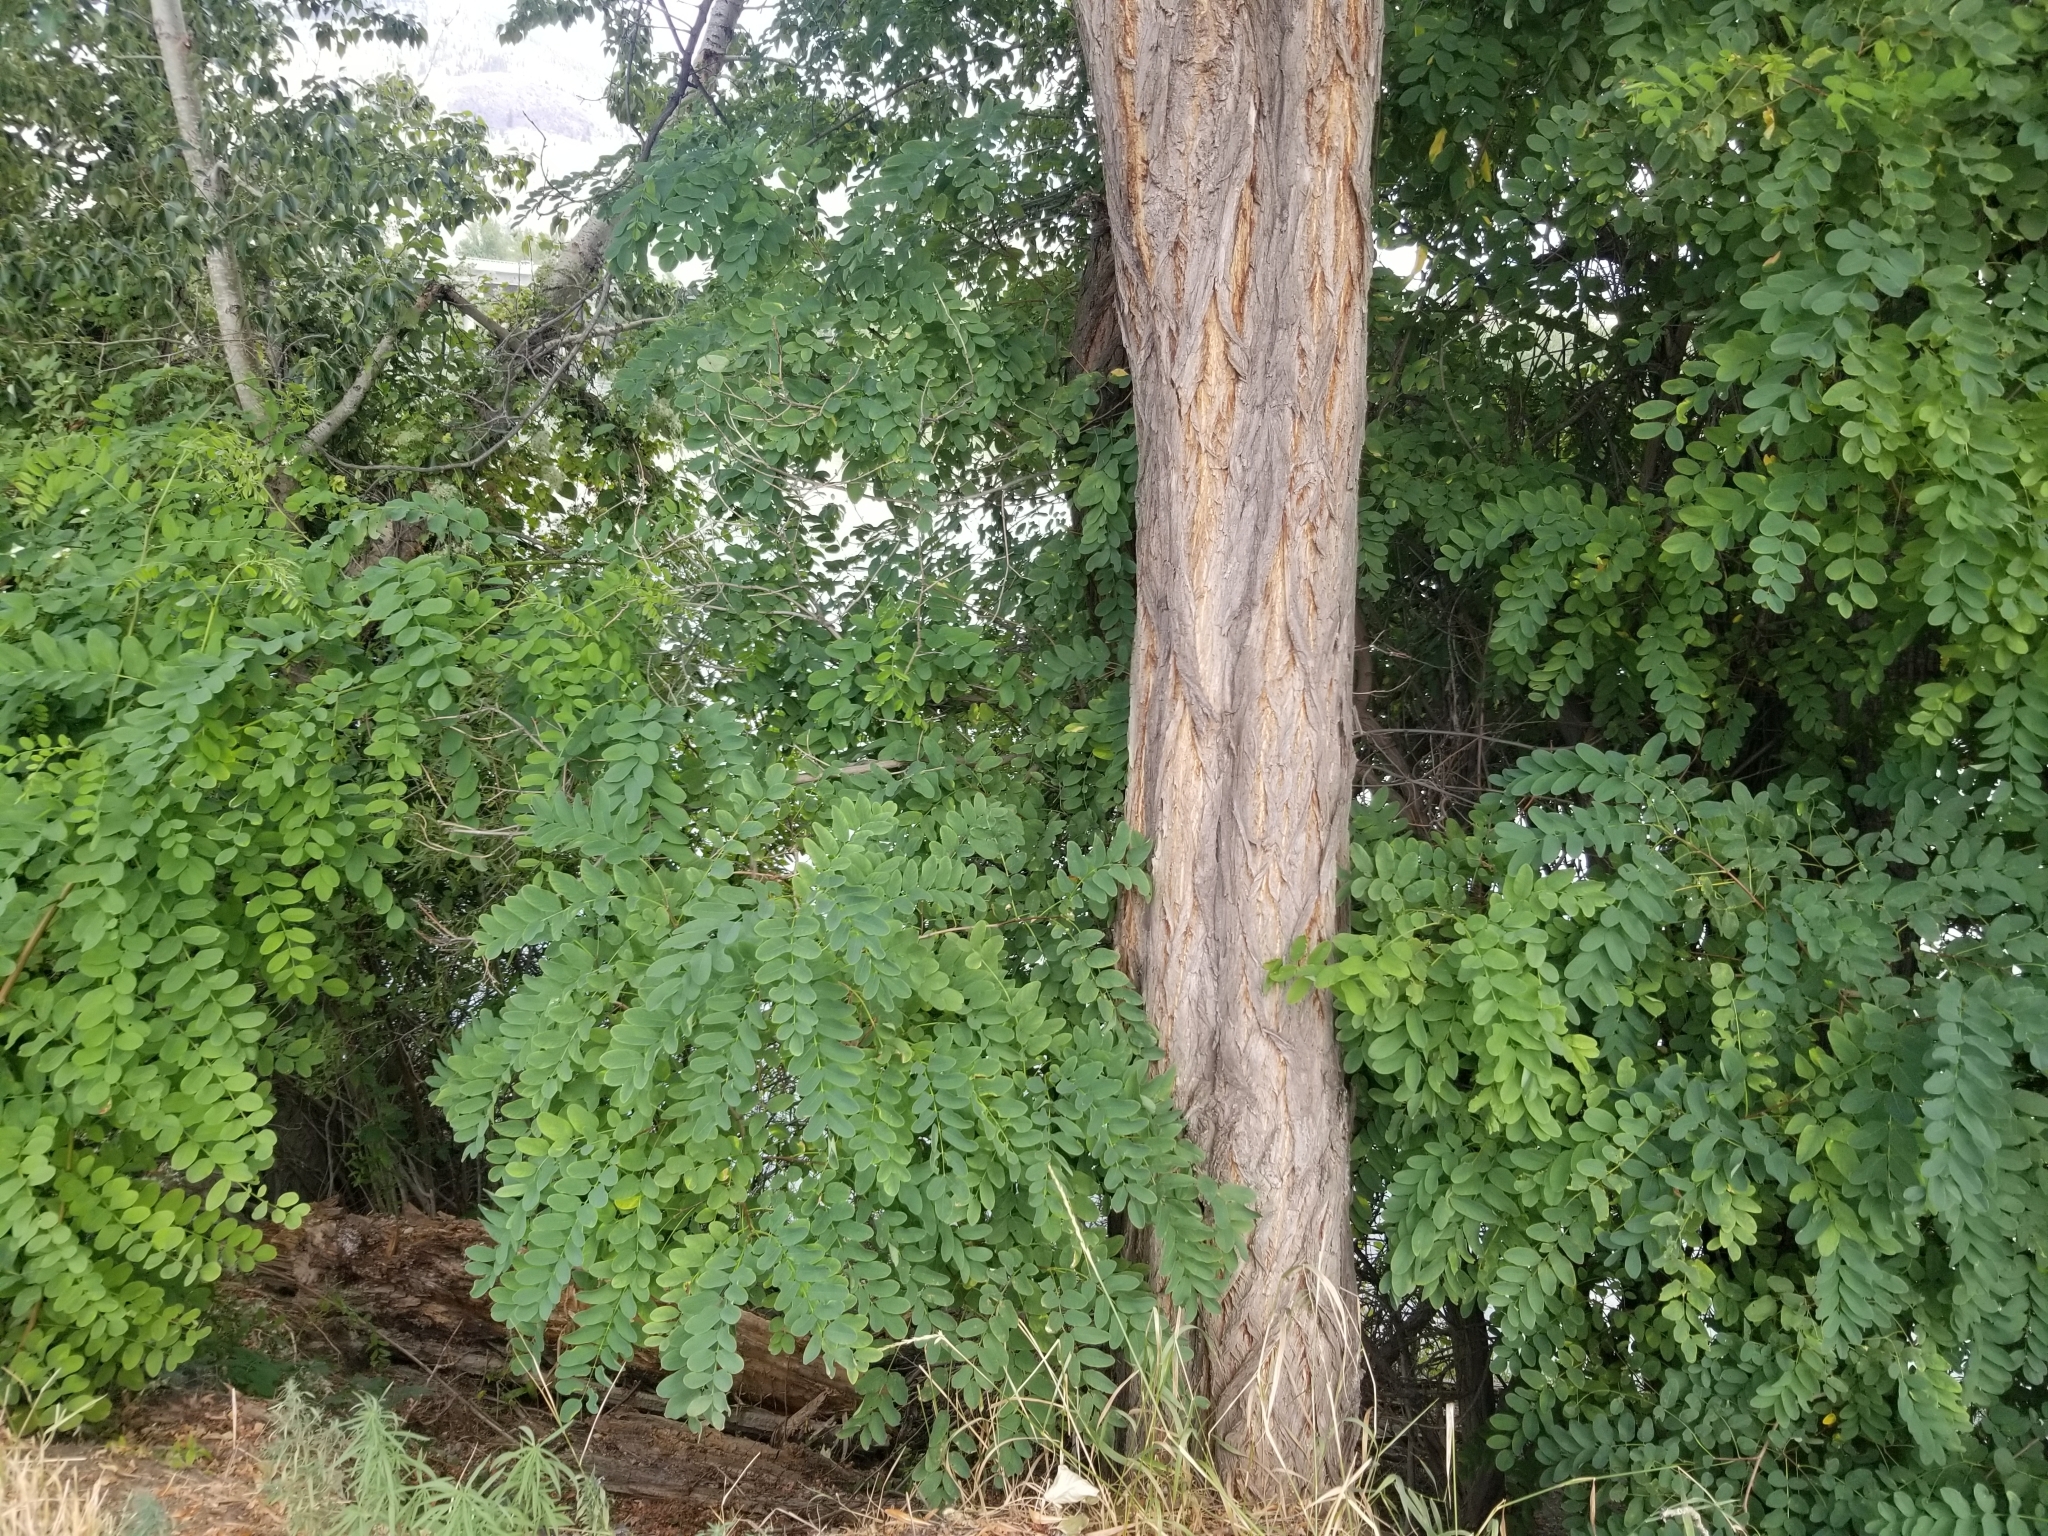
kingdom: Plantae
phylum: Tracheophyta
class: Magnoliopsida
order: Fabales
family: Fabaceae
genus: Robinia
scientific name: Robinia pseudoacacia
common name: Black locust
